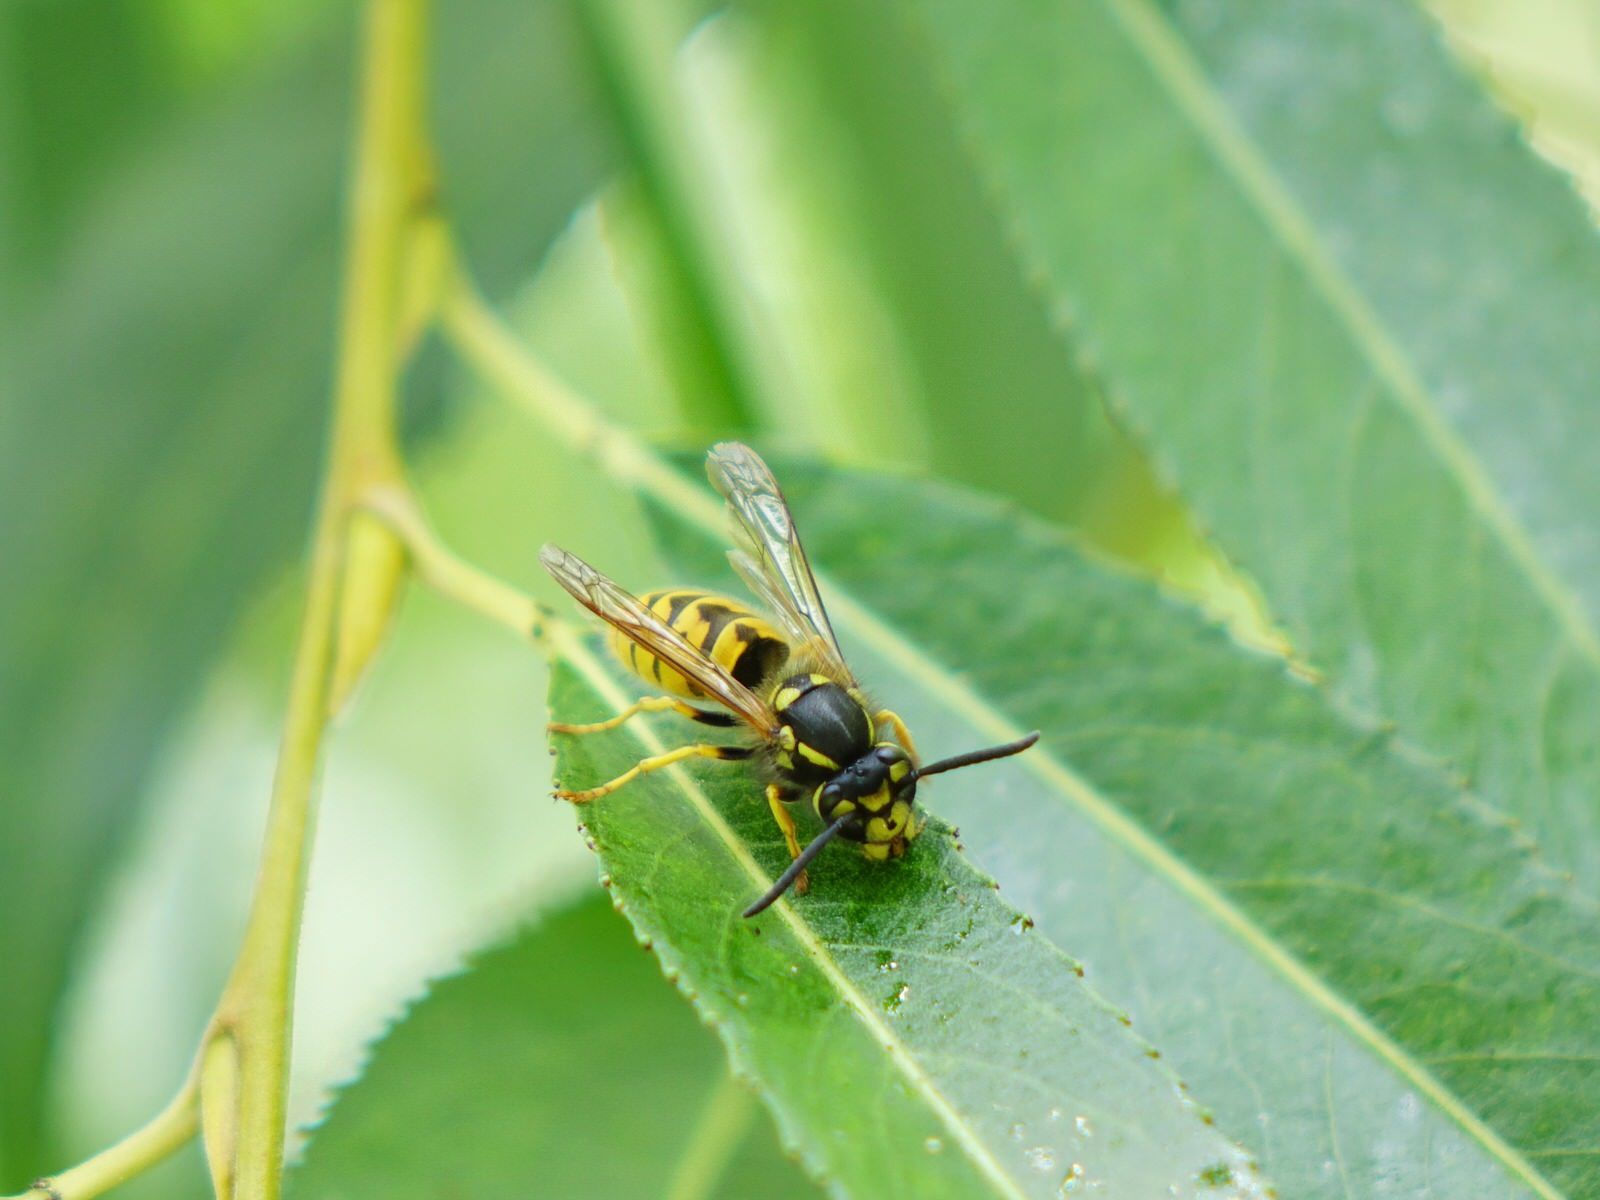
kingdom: Animalia
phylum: Arthropoda
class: Insecta
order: Hymenoptera
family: Vespidae
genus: Vespula
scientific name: Vespula germanica
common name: German wasp
